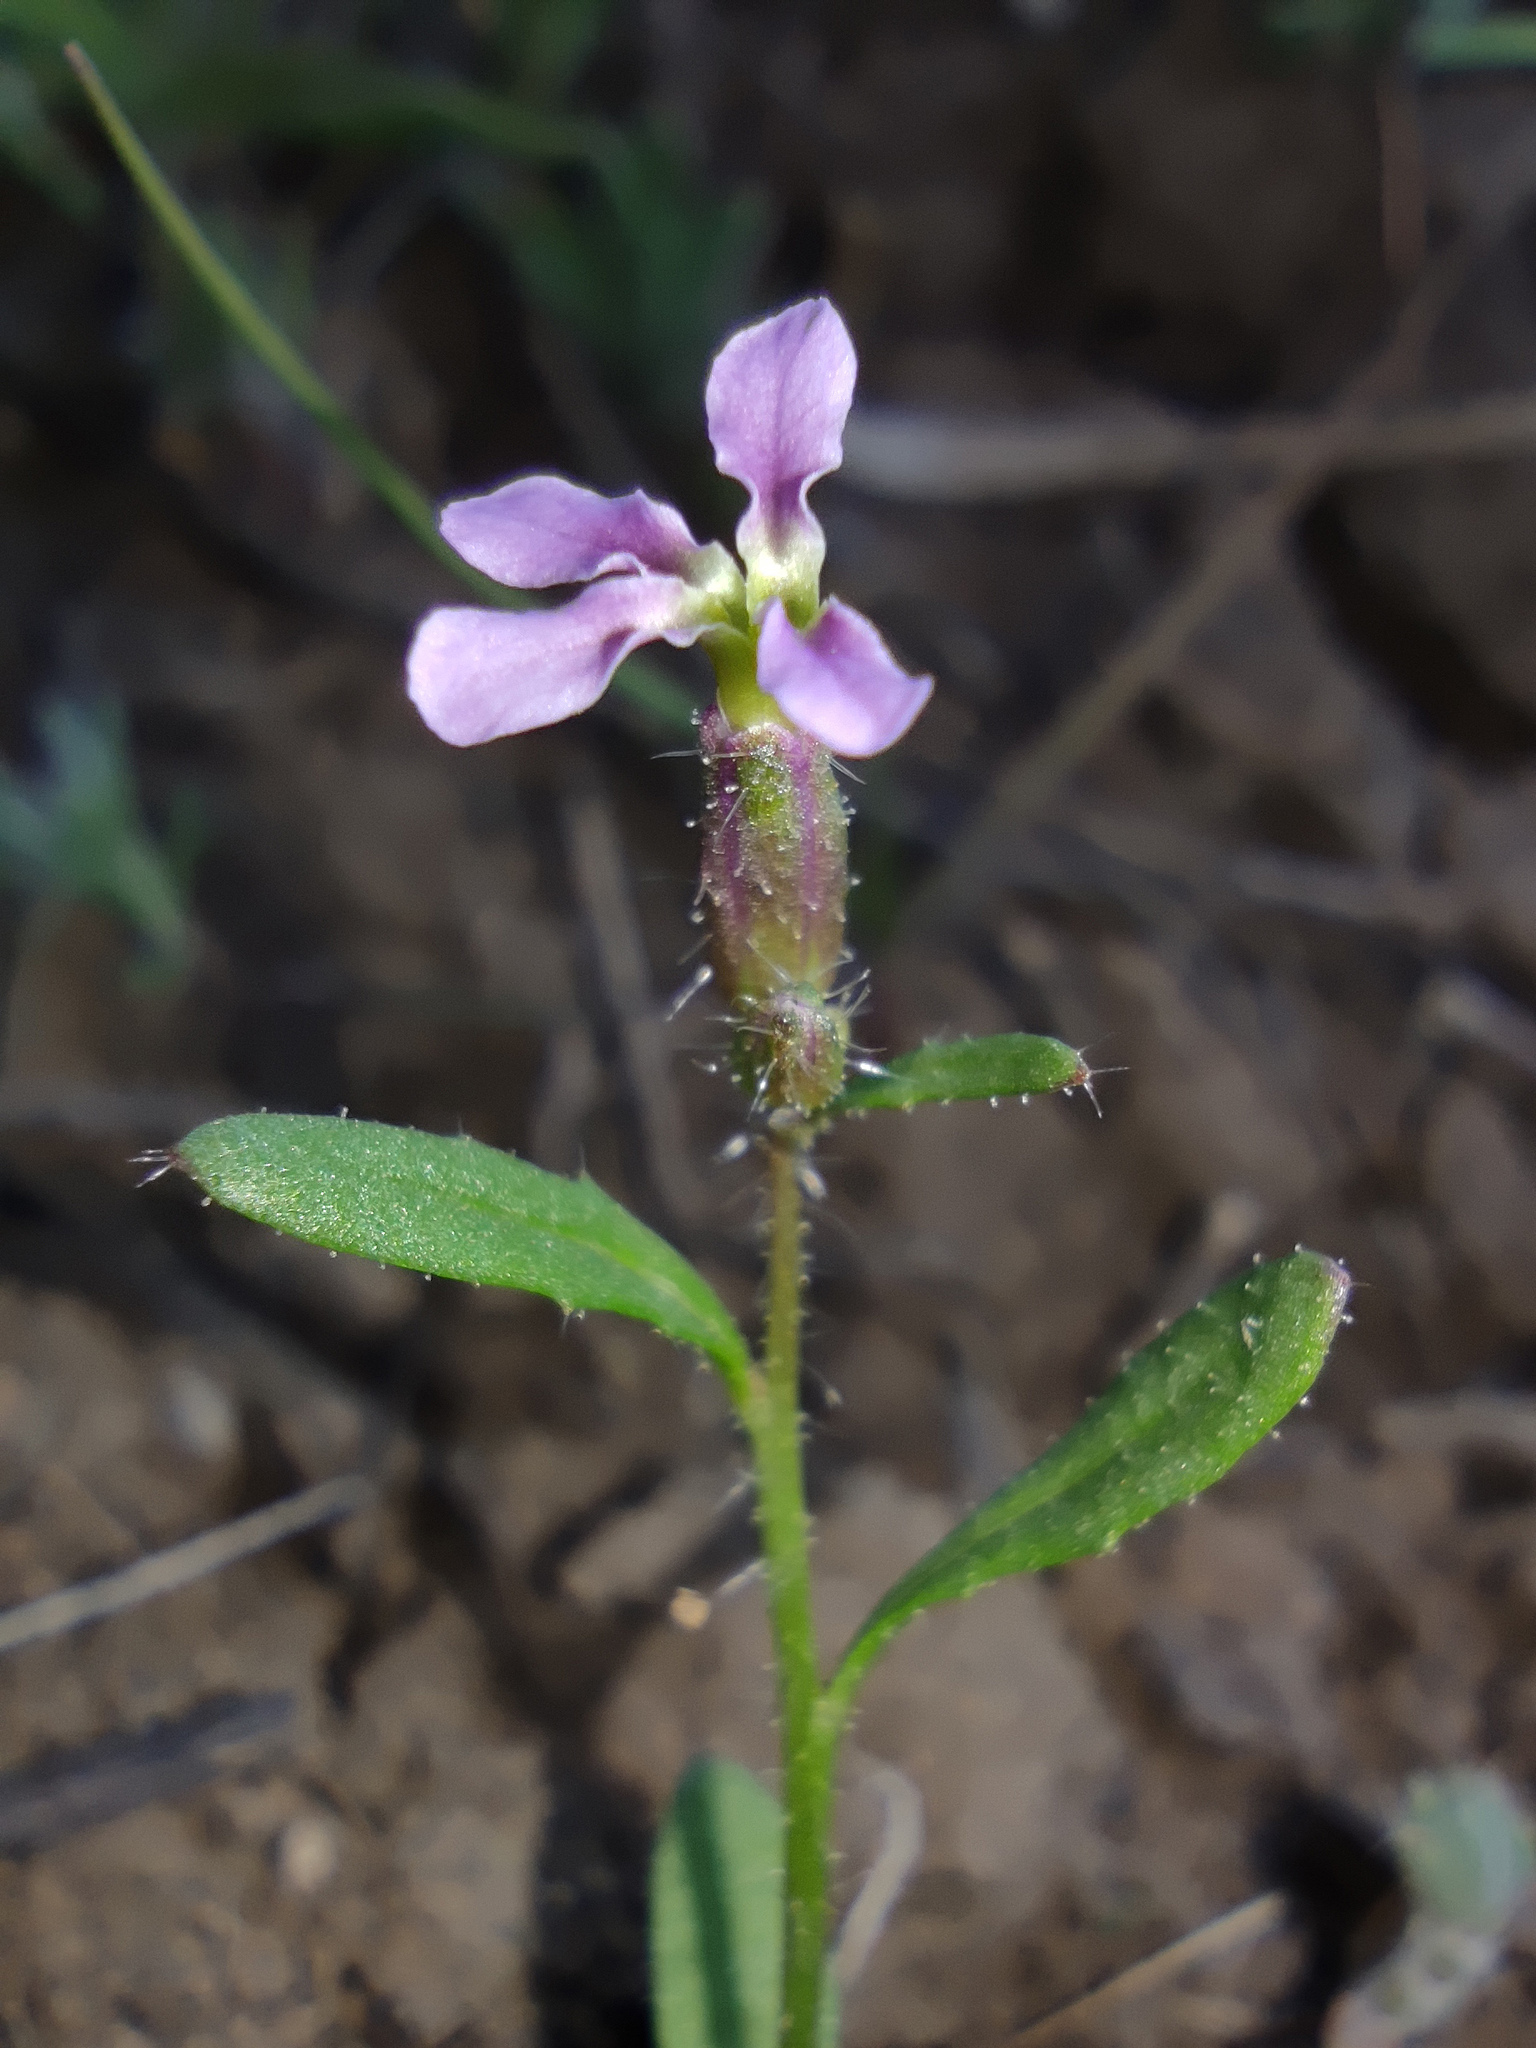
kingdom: Plantae
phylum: Tracheophyta
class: Magnoliopsida
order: Brassicales
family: Brassicaceae
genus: Chorispora
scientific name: Chorispora tenella
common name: Crossflower
